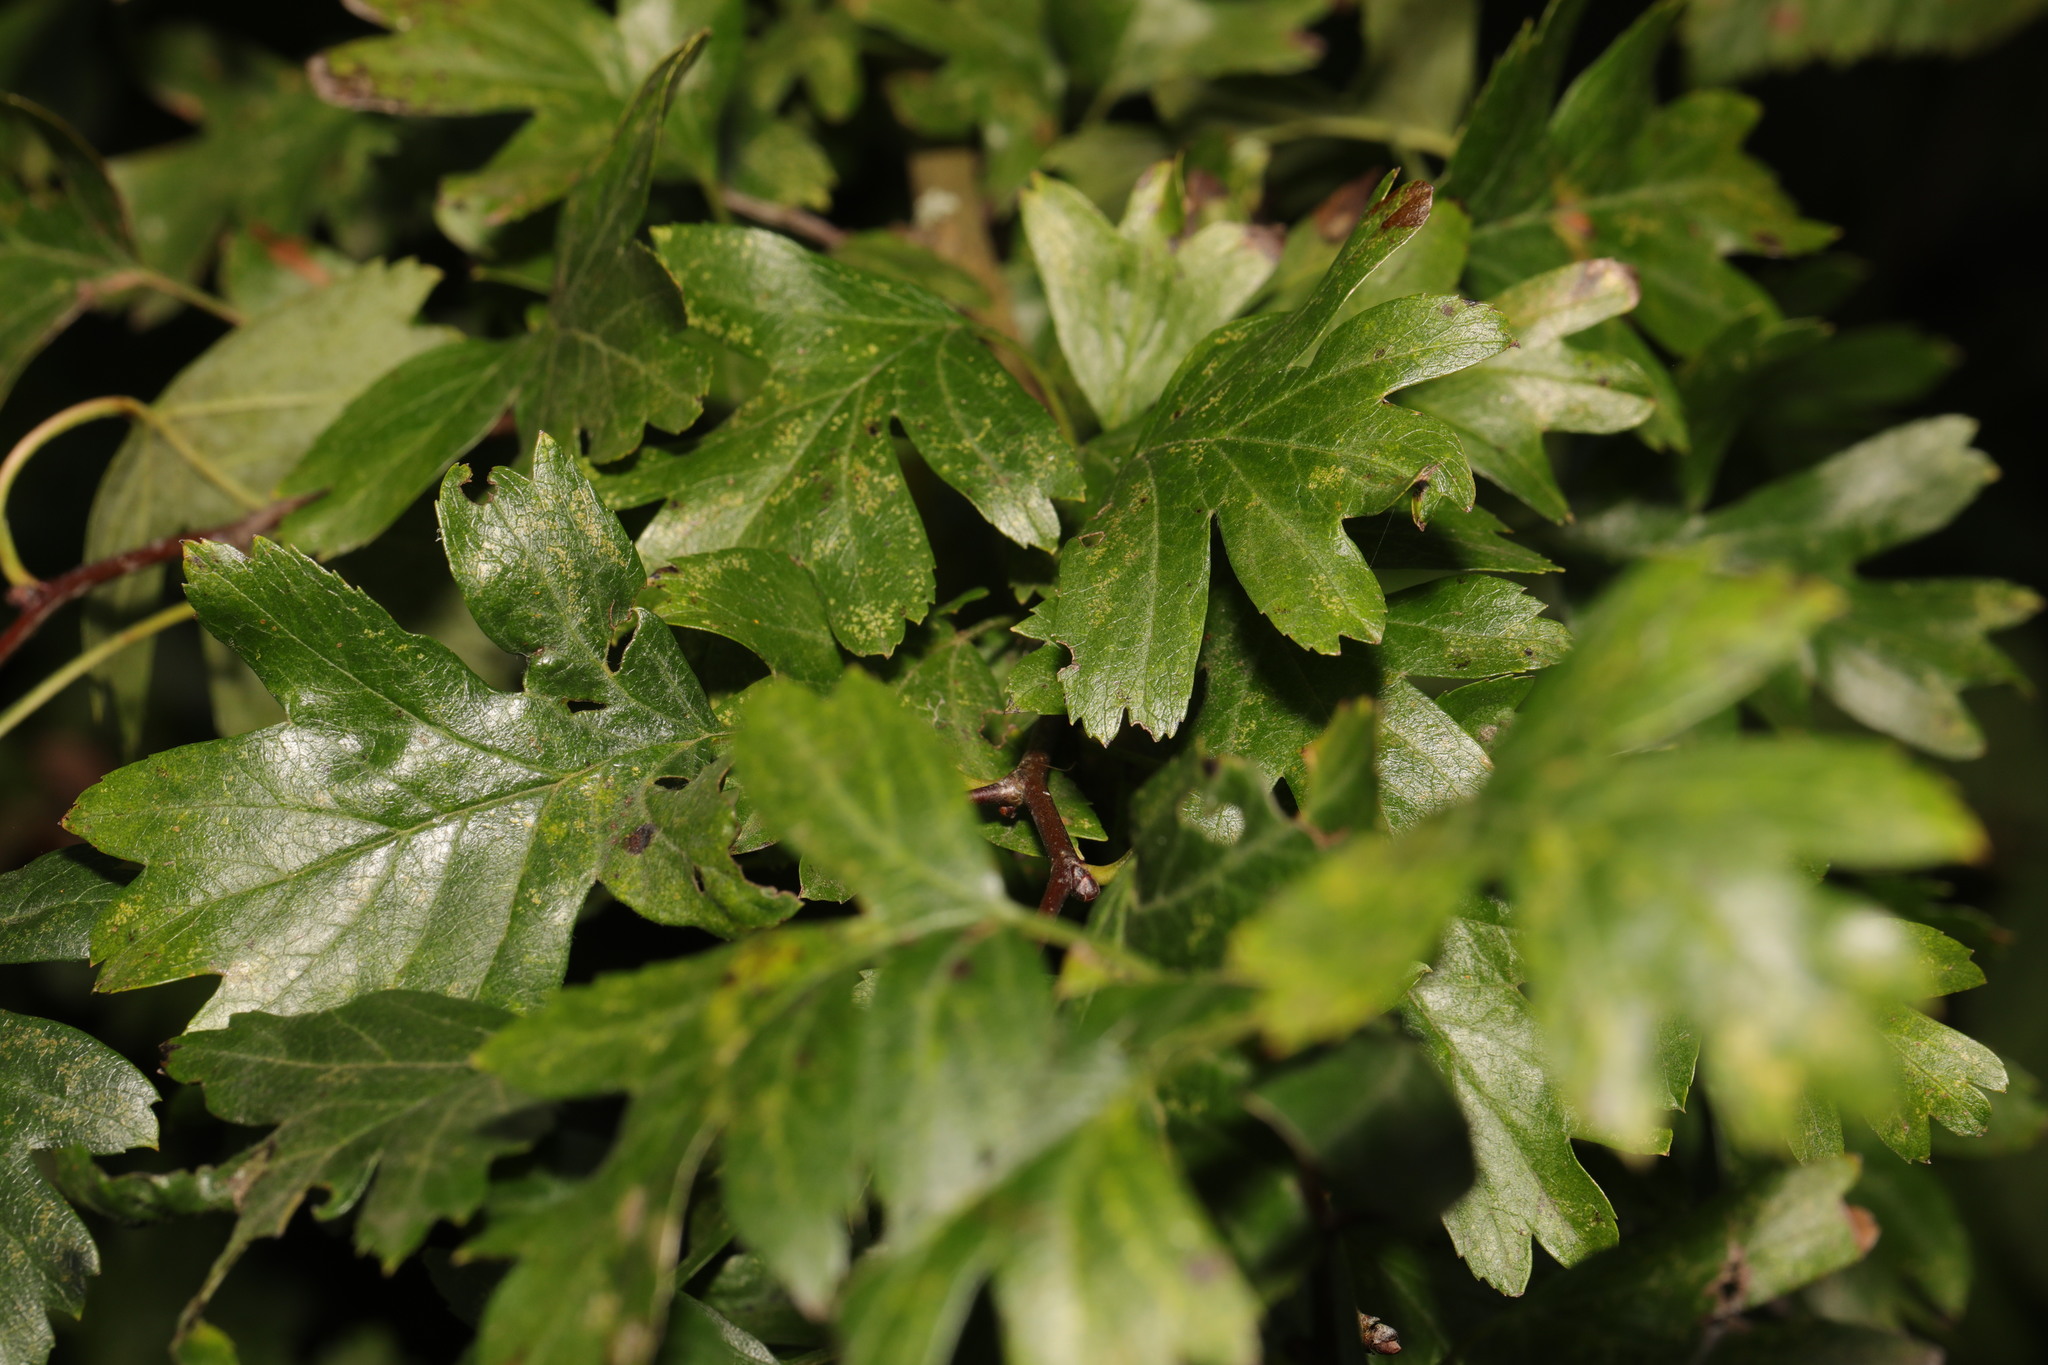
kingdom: Plantae
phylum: Tracheophyta
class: Magnoliopsida
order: Rosales
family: Rosaceae
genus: Crataegus
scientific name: Crataegus monogyna
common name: Hawthorn
